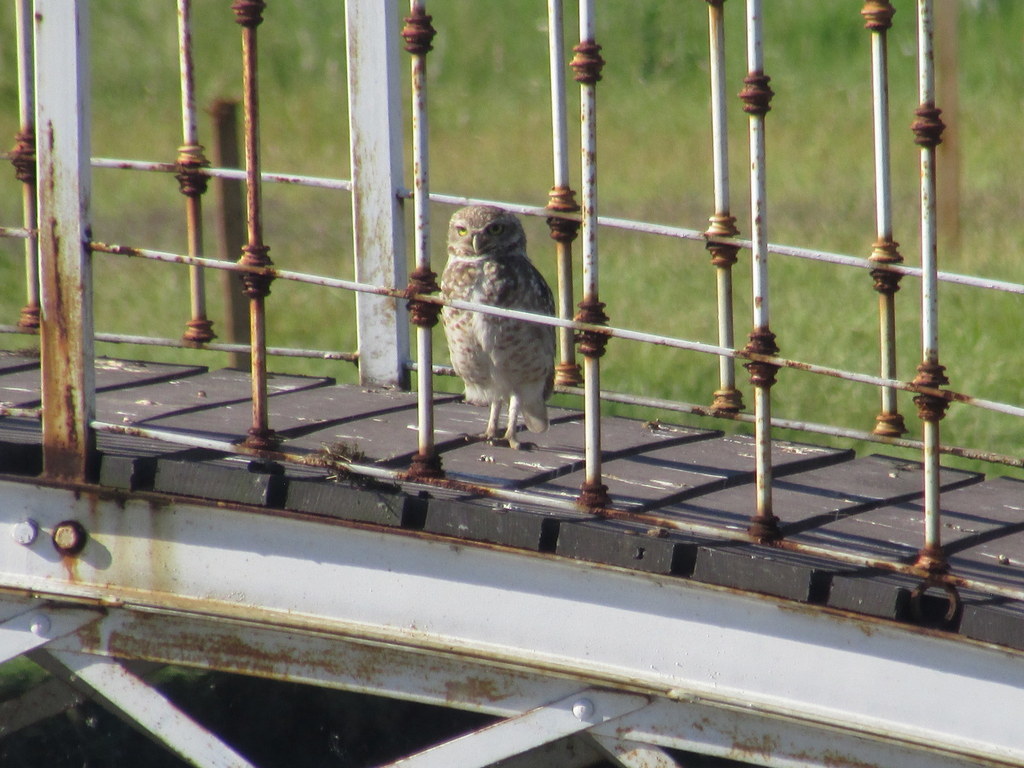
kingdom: Animalia
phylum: Chordata
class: Aves
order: Strigiformes
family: Strigidae
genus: Athene
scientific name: Athene cunicularia
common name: Burrowing owl
